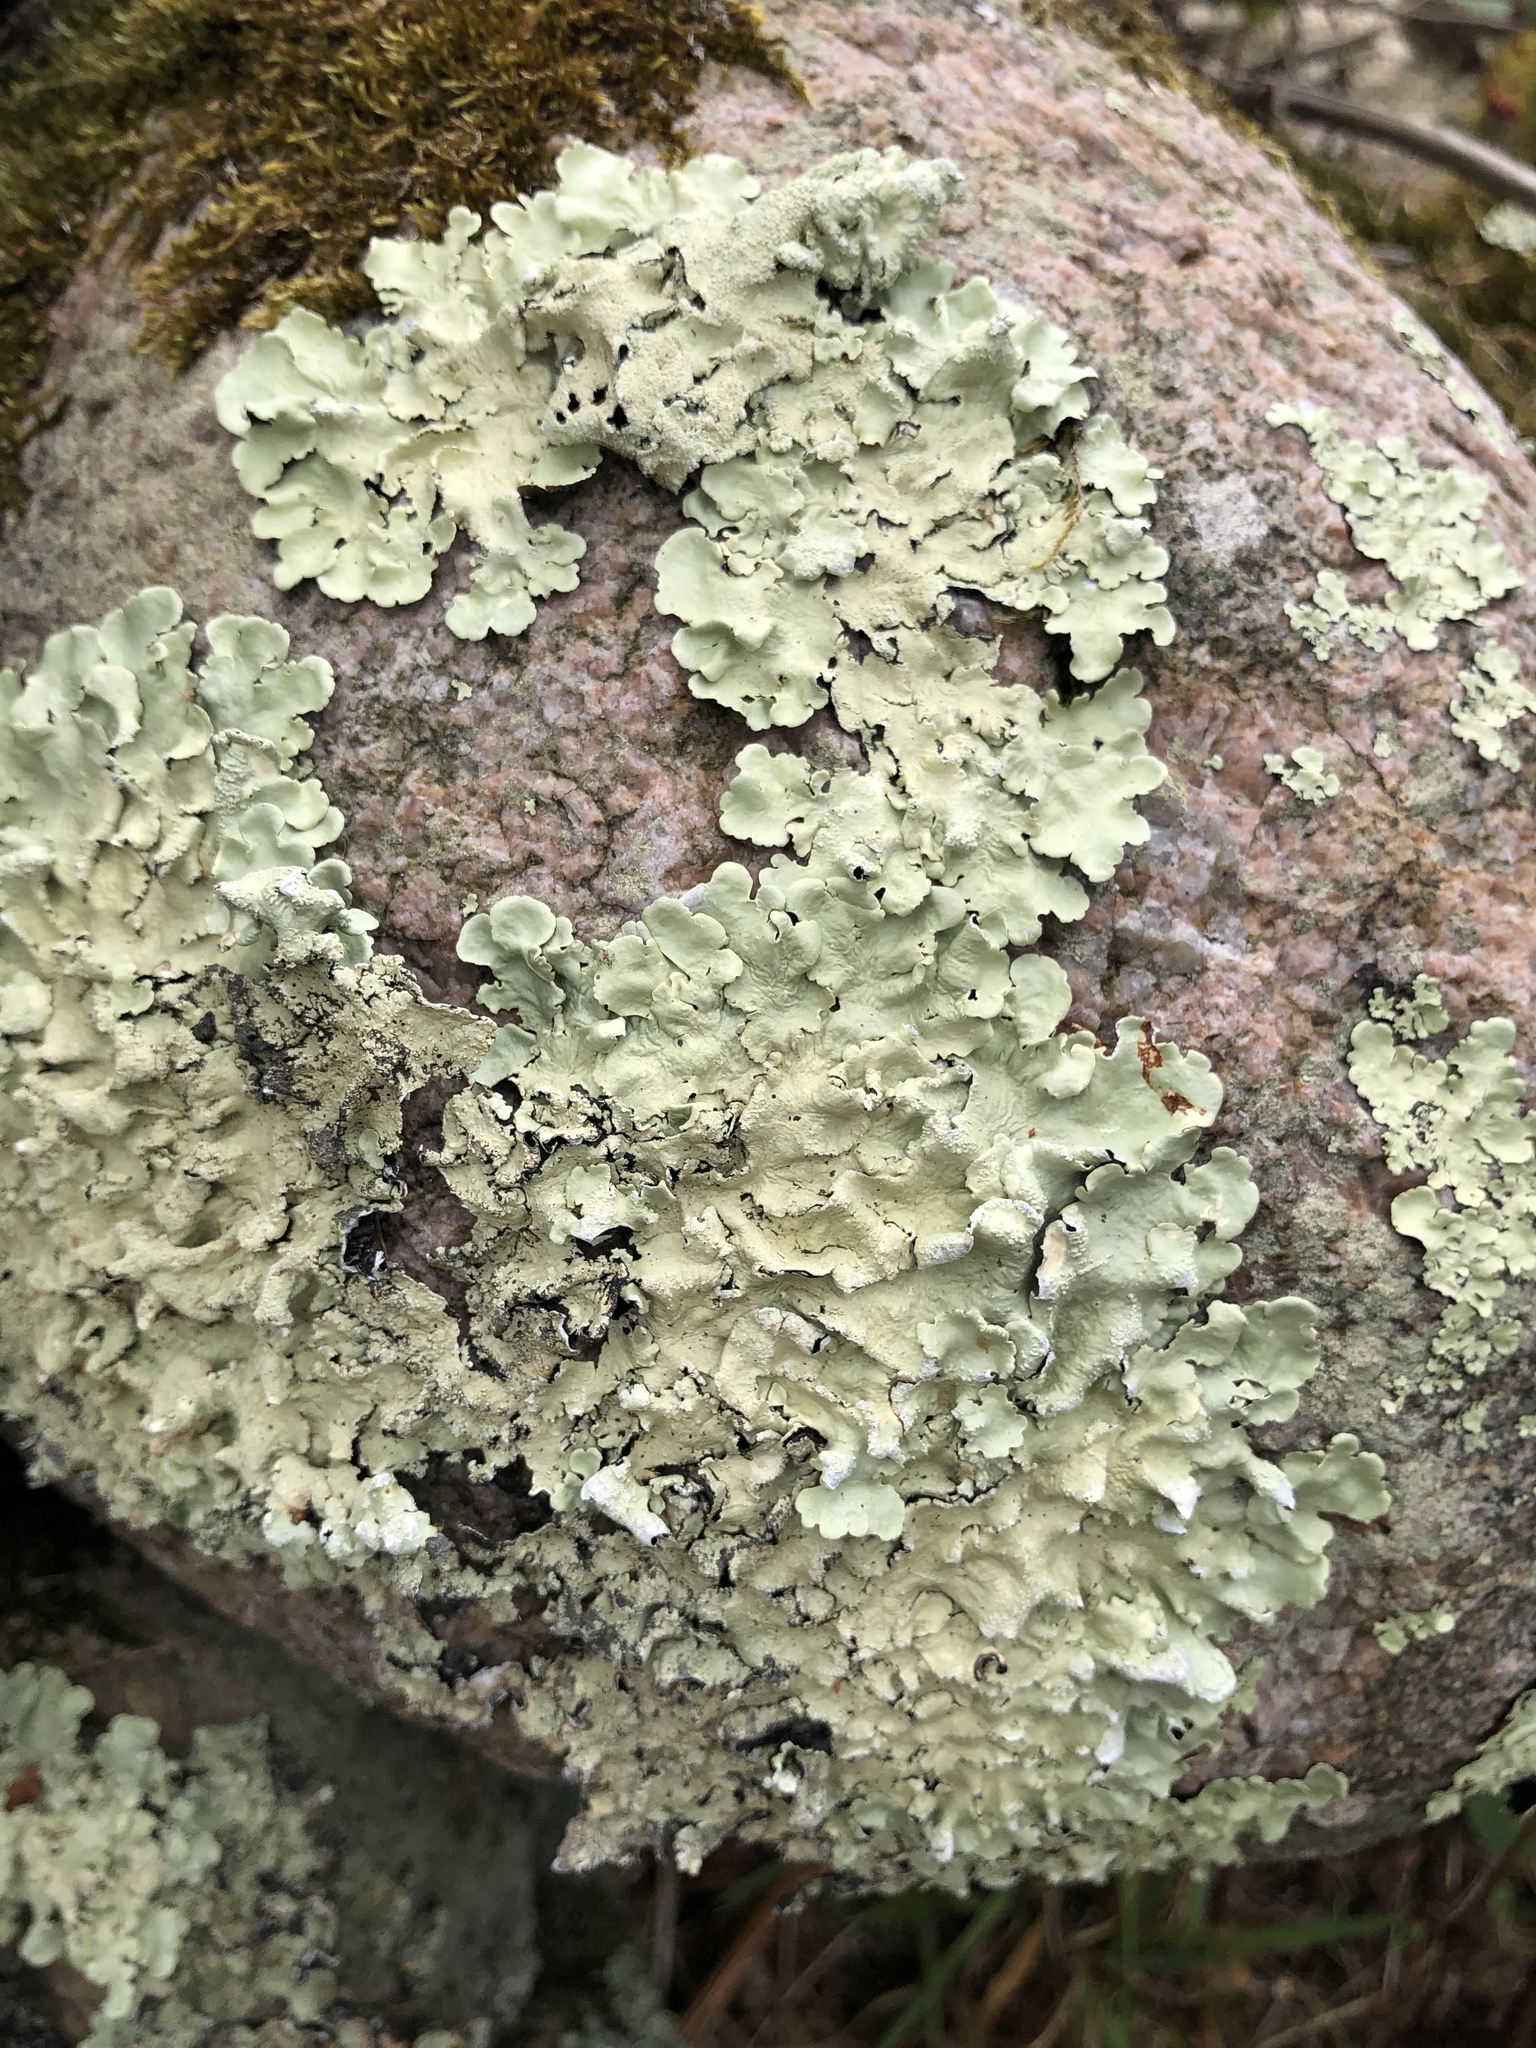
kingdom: Fungi
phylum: Ascomycota
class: Lecanoromycetes
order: Lecanorales
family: Parmeliaceae
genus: Flavoparmelia
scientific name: Flavoparmelia caperata
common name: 40-mile per hour lichen
